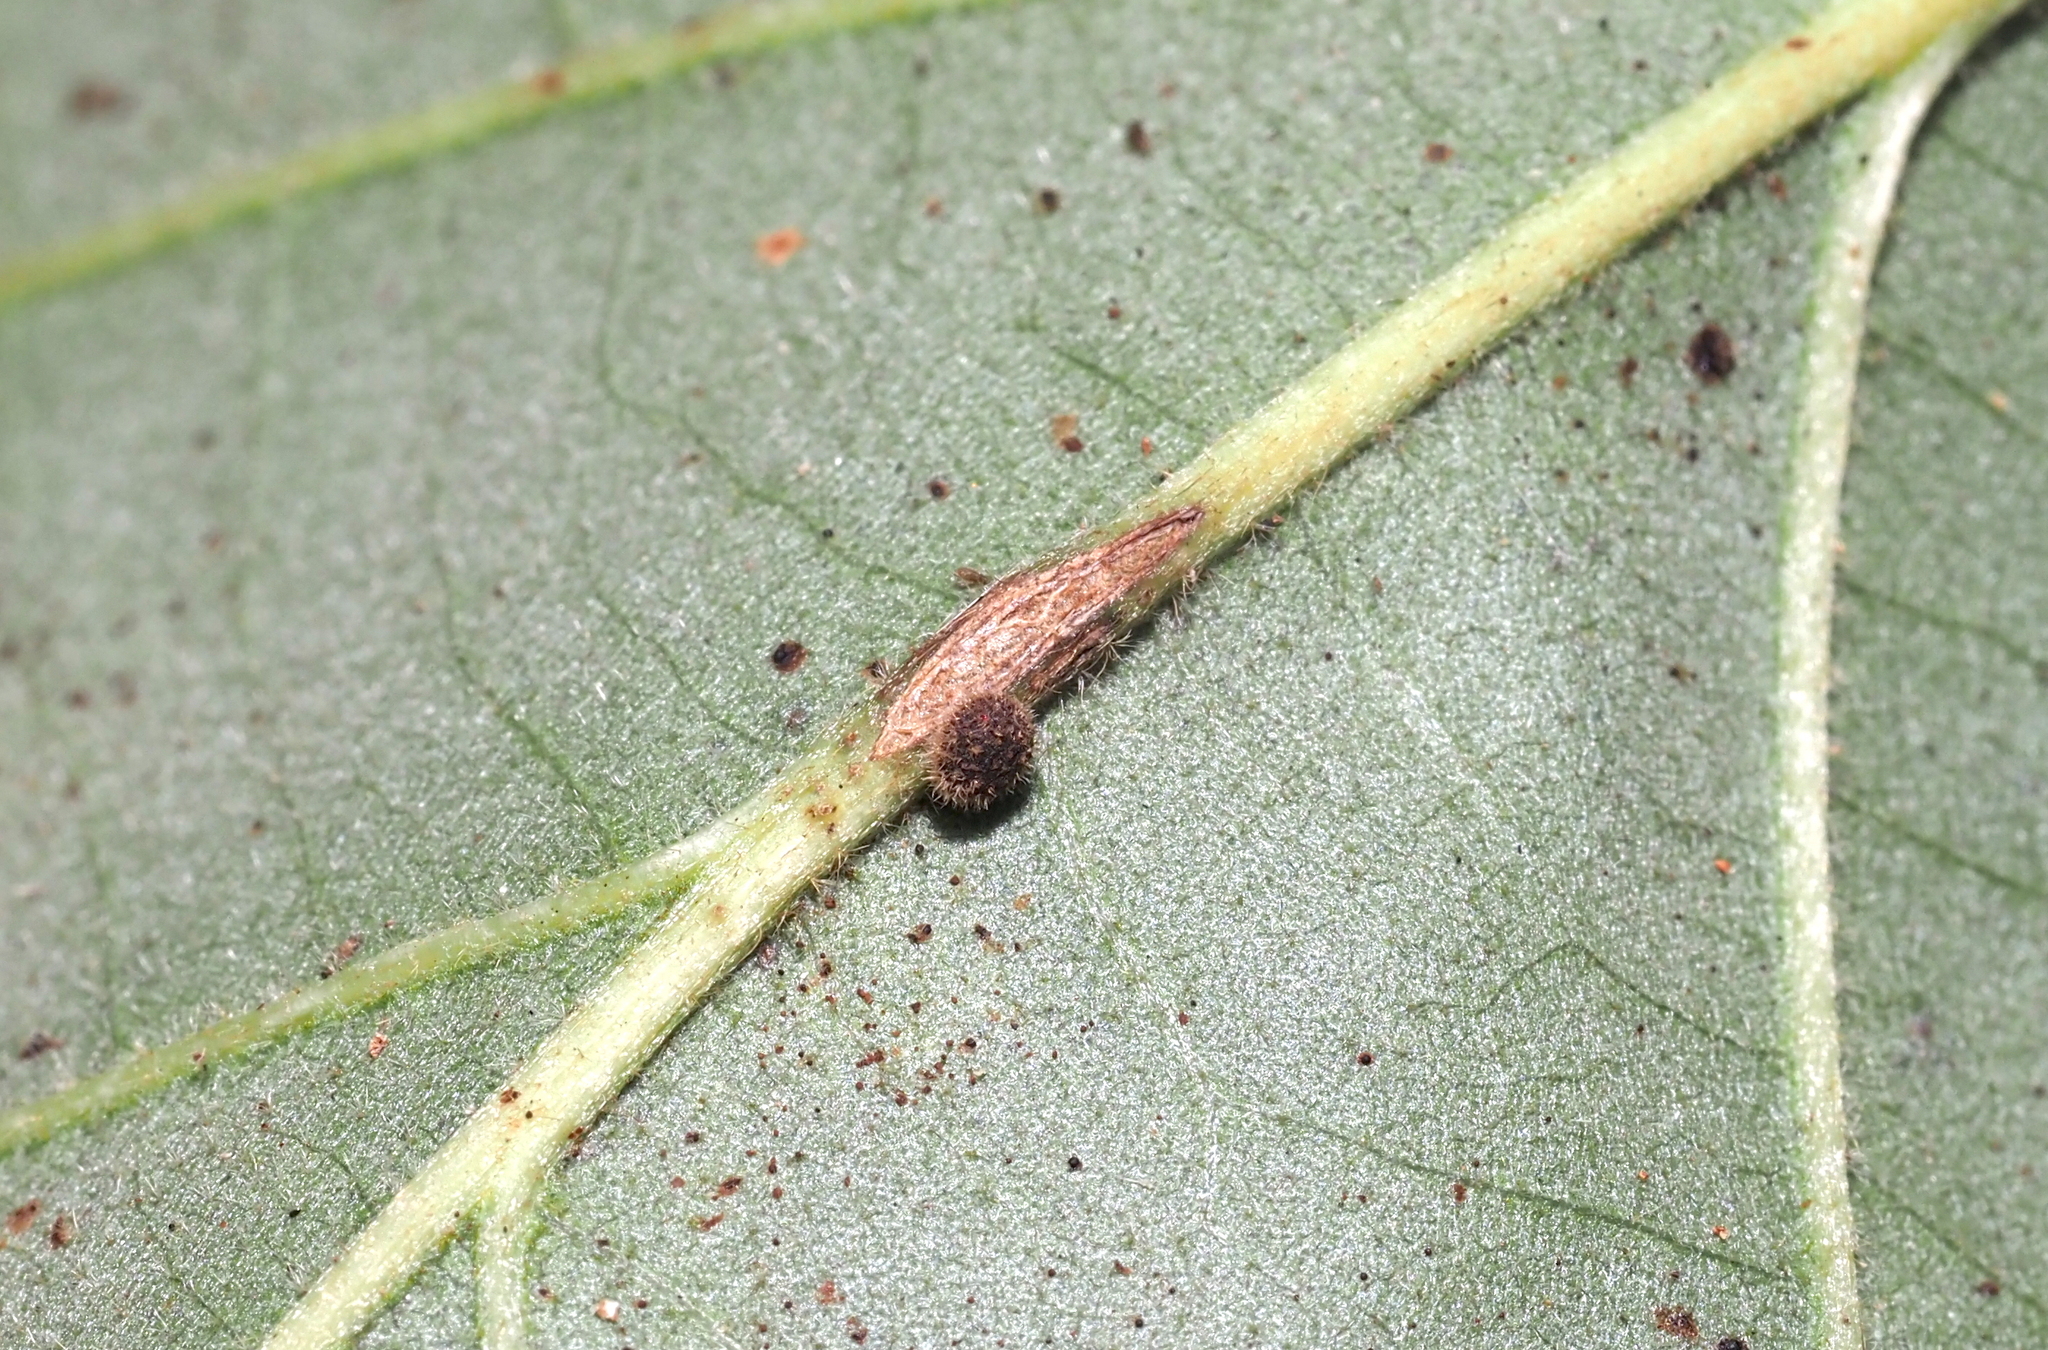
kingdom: Animalia
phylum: Arthropoda
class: Insecta
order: Hymenoptera
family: Cynipidae
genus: Andricus
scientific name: Andricus
